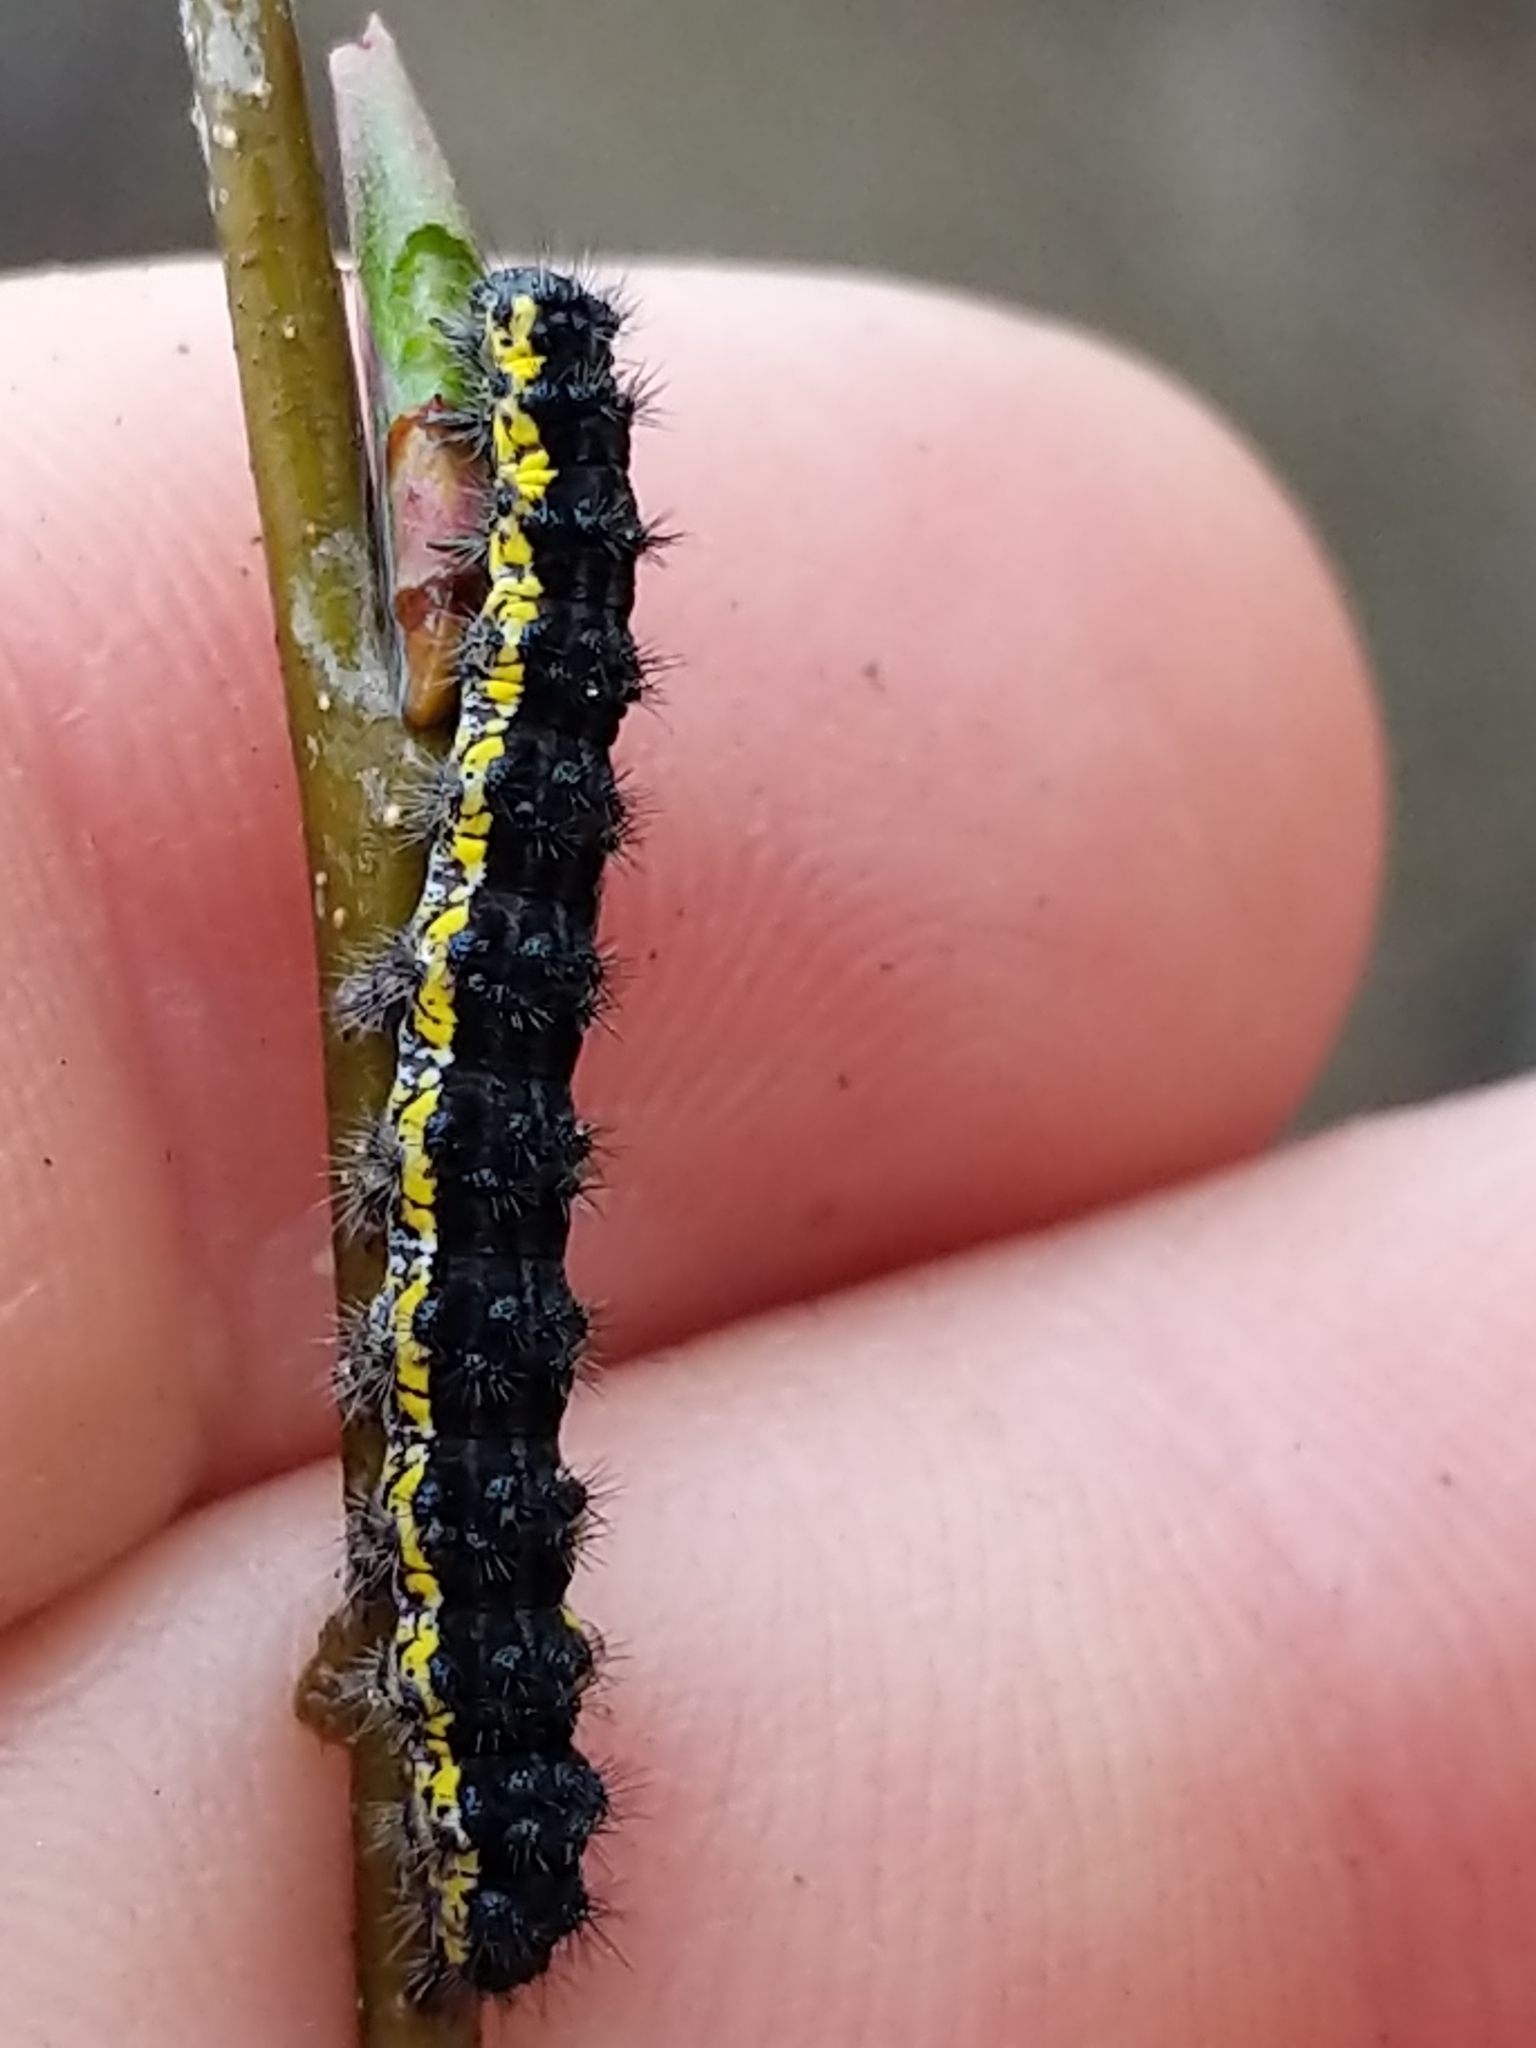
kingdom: Animalia
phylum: Arthropoda
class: Insecta
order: Lepidoptera
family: Erebidae
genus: Haploa
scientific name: Haploa contigua
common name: Neighbor moth
